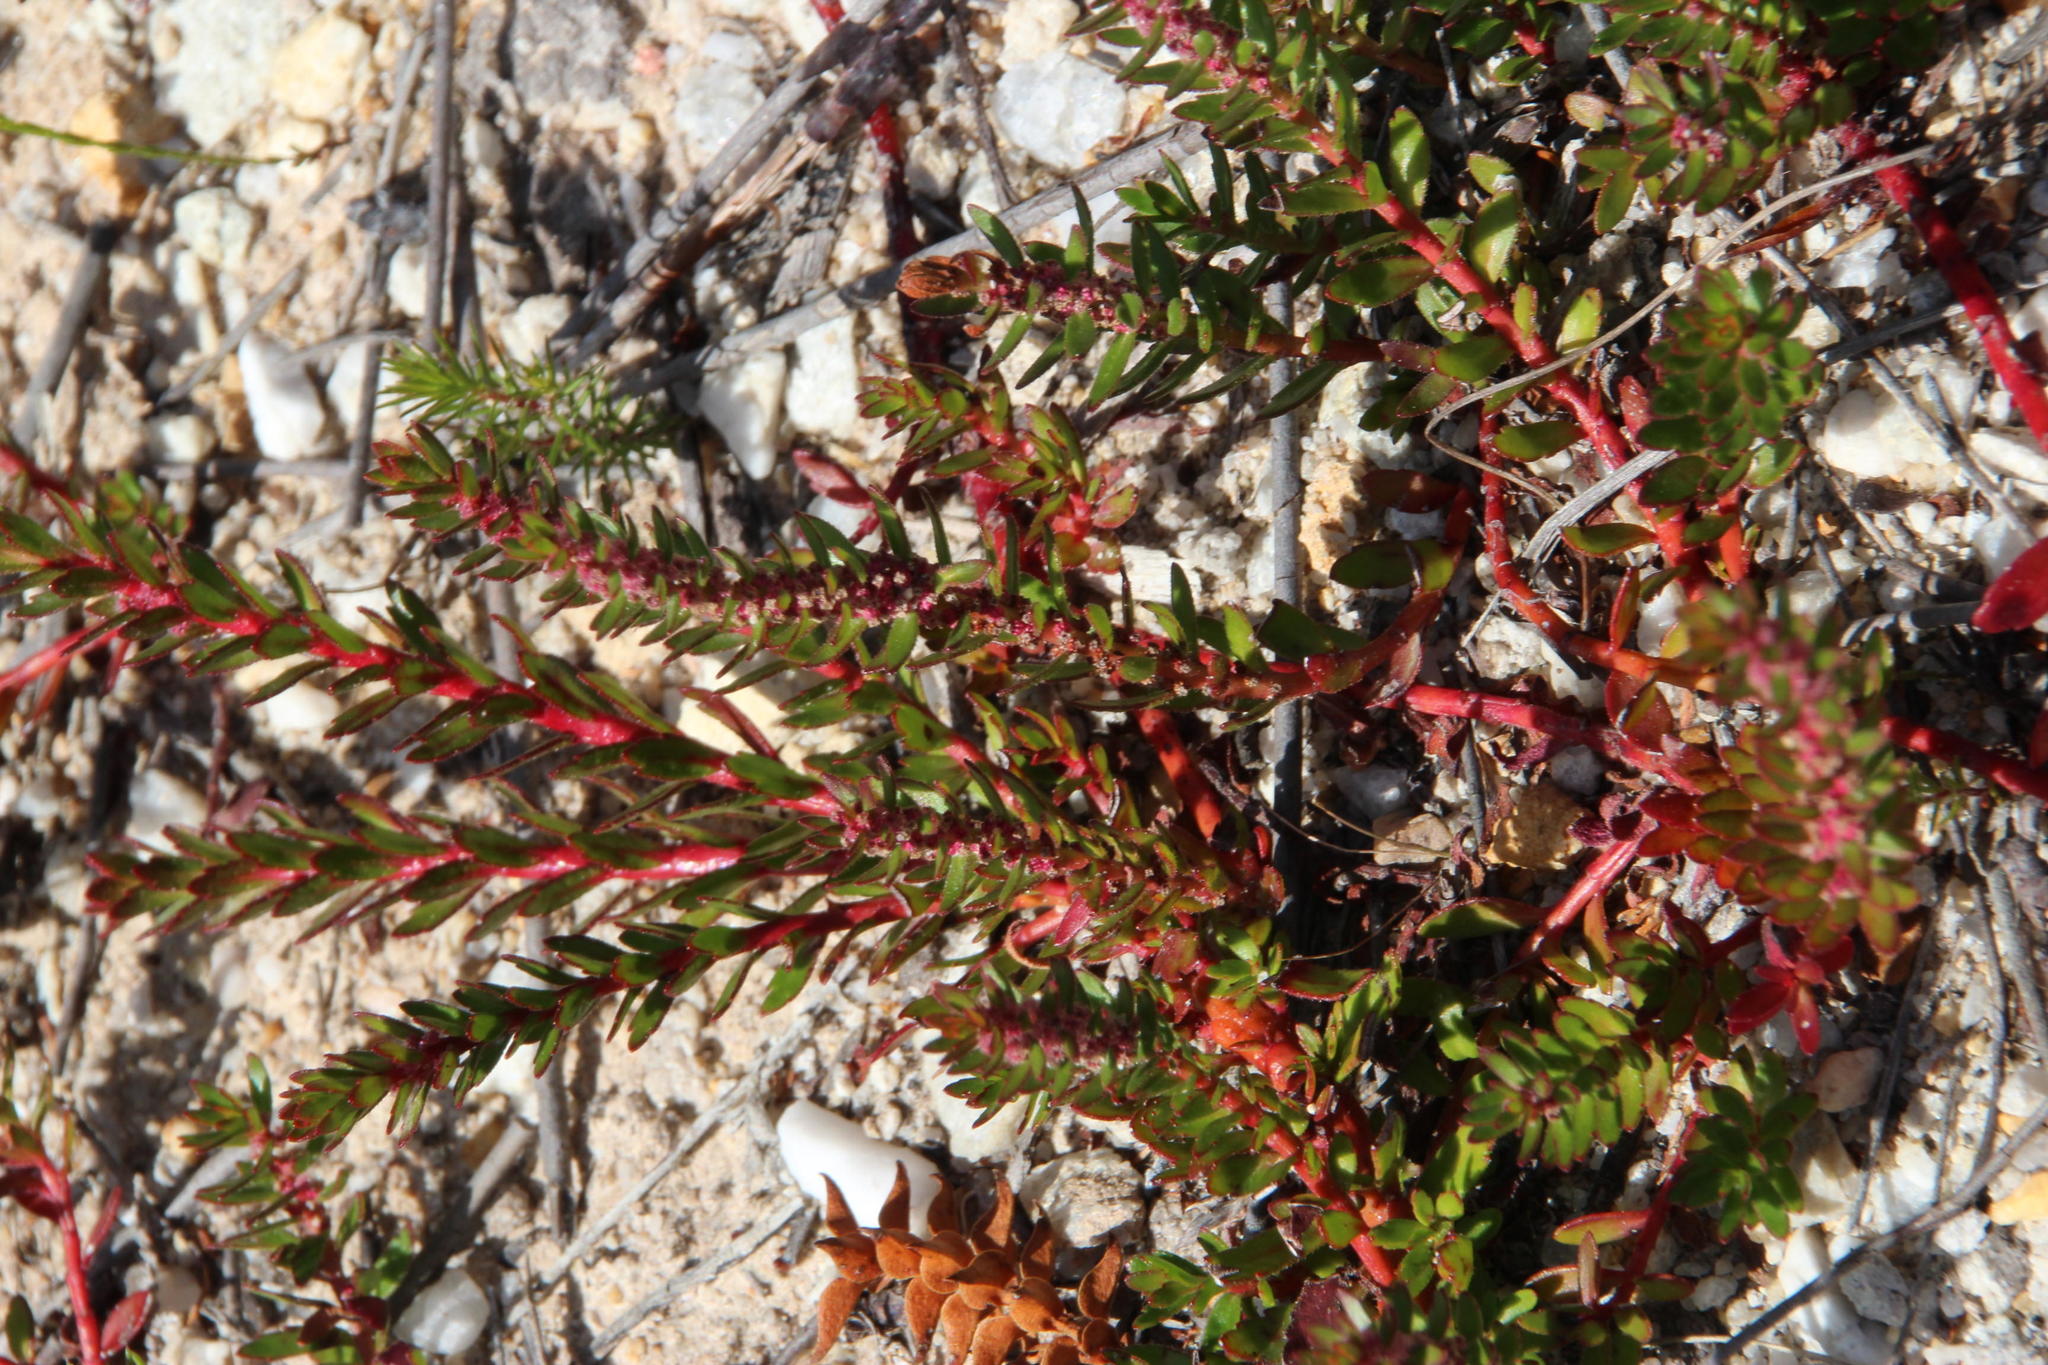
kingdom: Plantae
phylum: Tracheophyta
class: Magnoliopsida
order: Saxifragales
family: Haloragaceae
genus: Laurembergia
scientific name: Laurembergia repens
